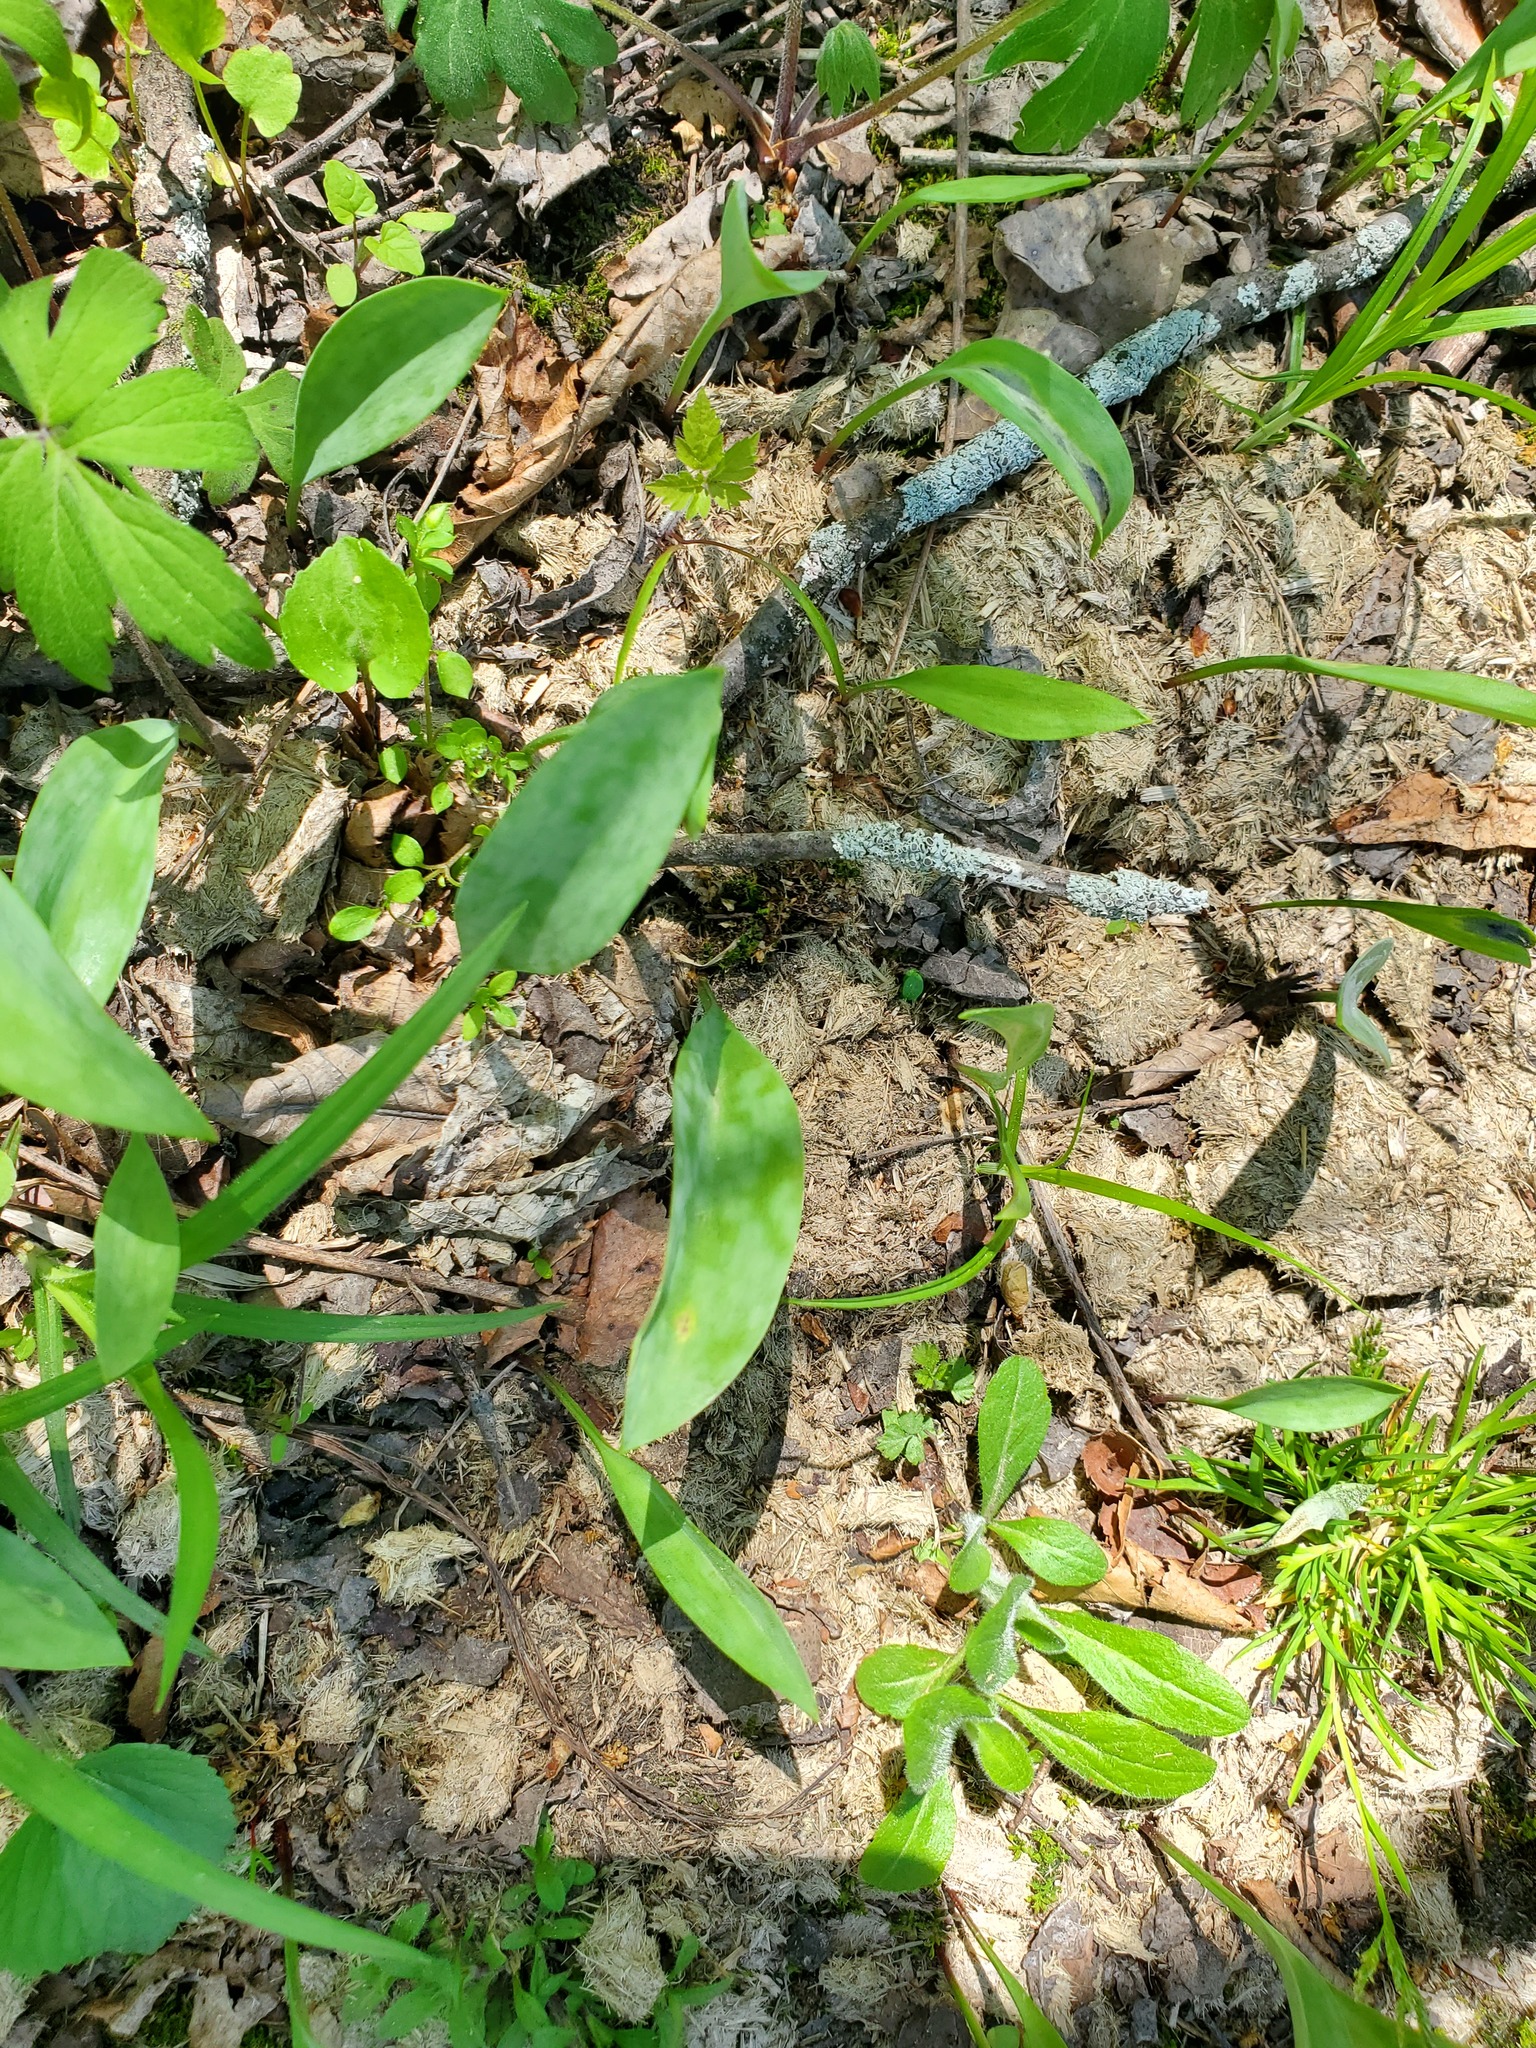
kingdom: Plantae
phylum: Tracheophyta
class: Liliopsida
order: Liliales
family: Liliaceae
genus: Erythronium
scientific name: Erythronium albidum
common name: White trout-lily
